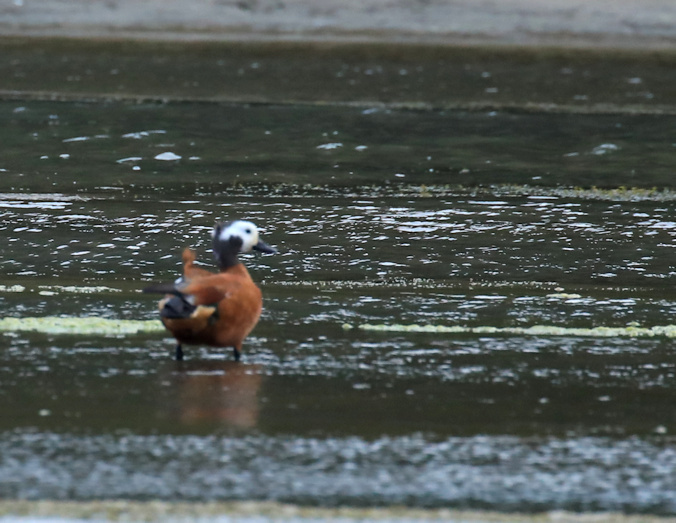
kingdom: Animalia
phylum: Chordata
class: Aves
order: Anseriformes
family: Anatidae
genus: Tadorna
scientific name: Tadorna cana
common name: South african shelduck
